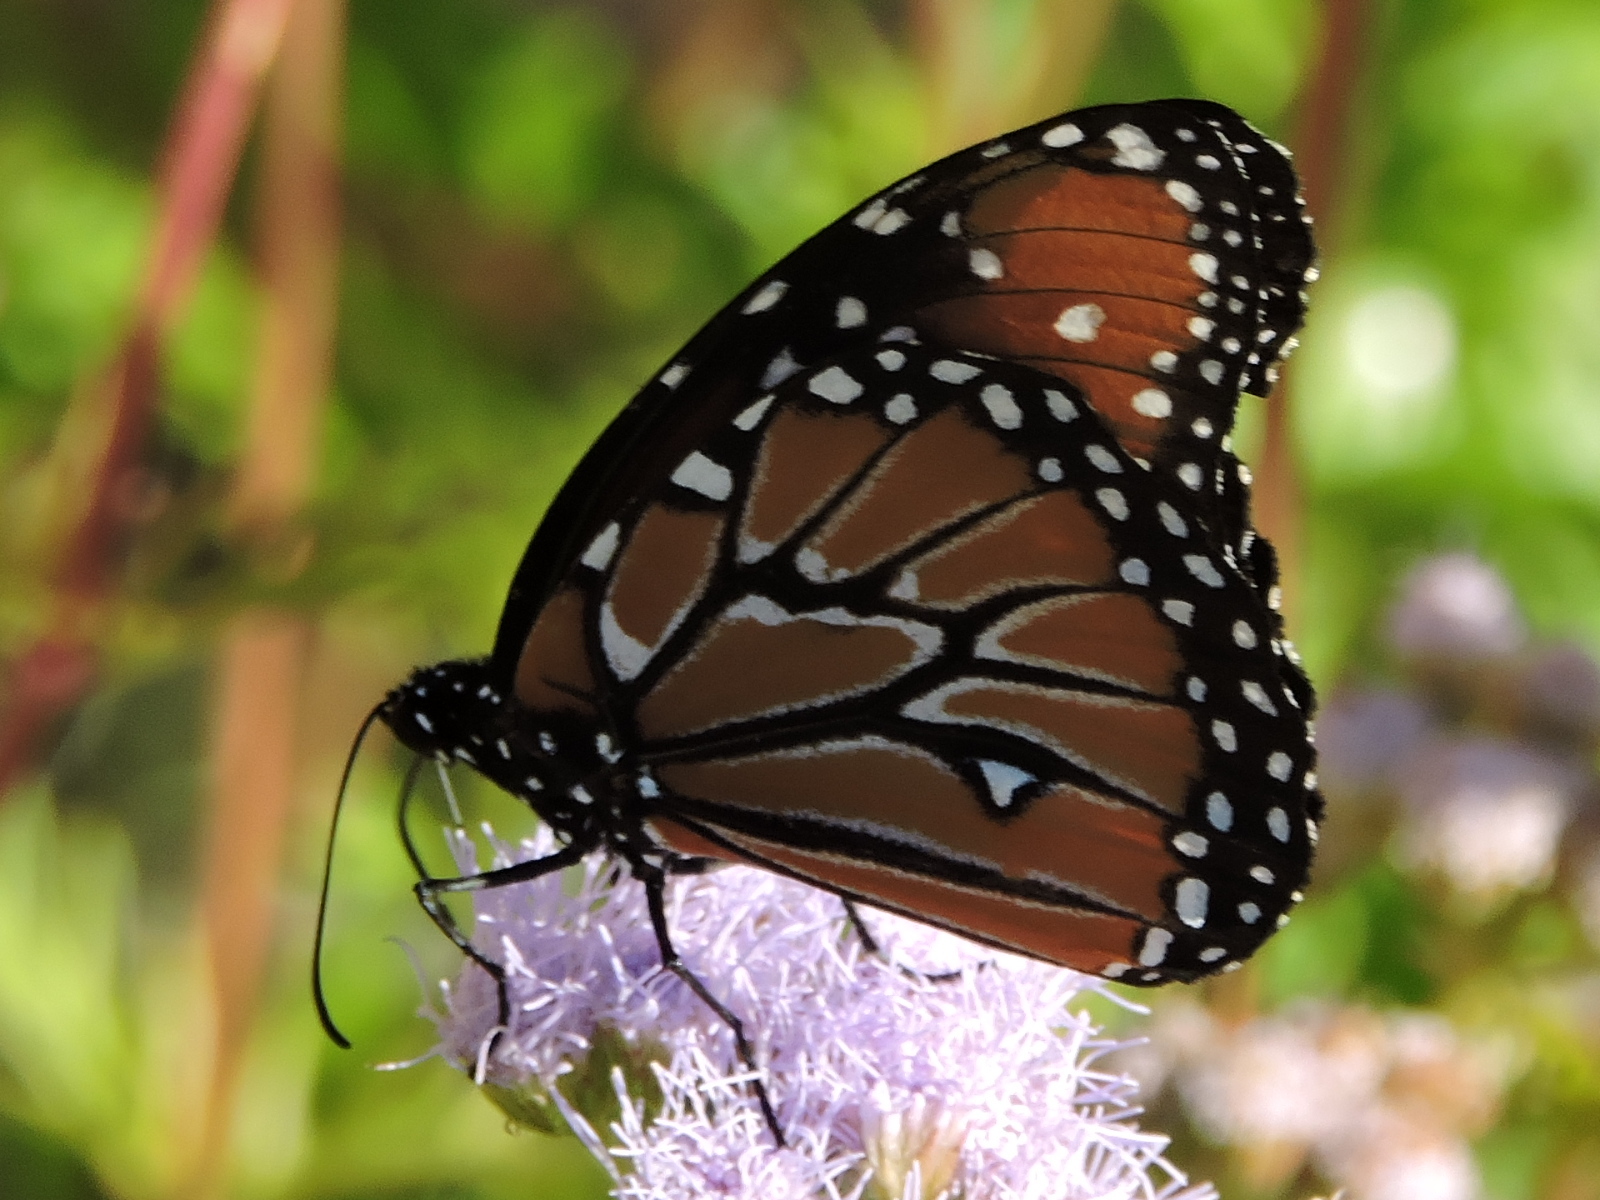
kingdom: Animalia
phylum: Arthropoda
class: Insecta
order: Lepidoptera
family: Nymphalidae
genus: Danaus
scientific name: Danaus gilippus
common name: Queen
